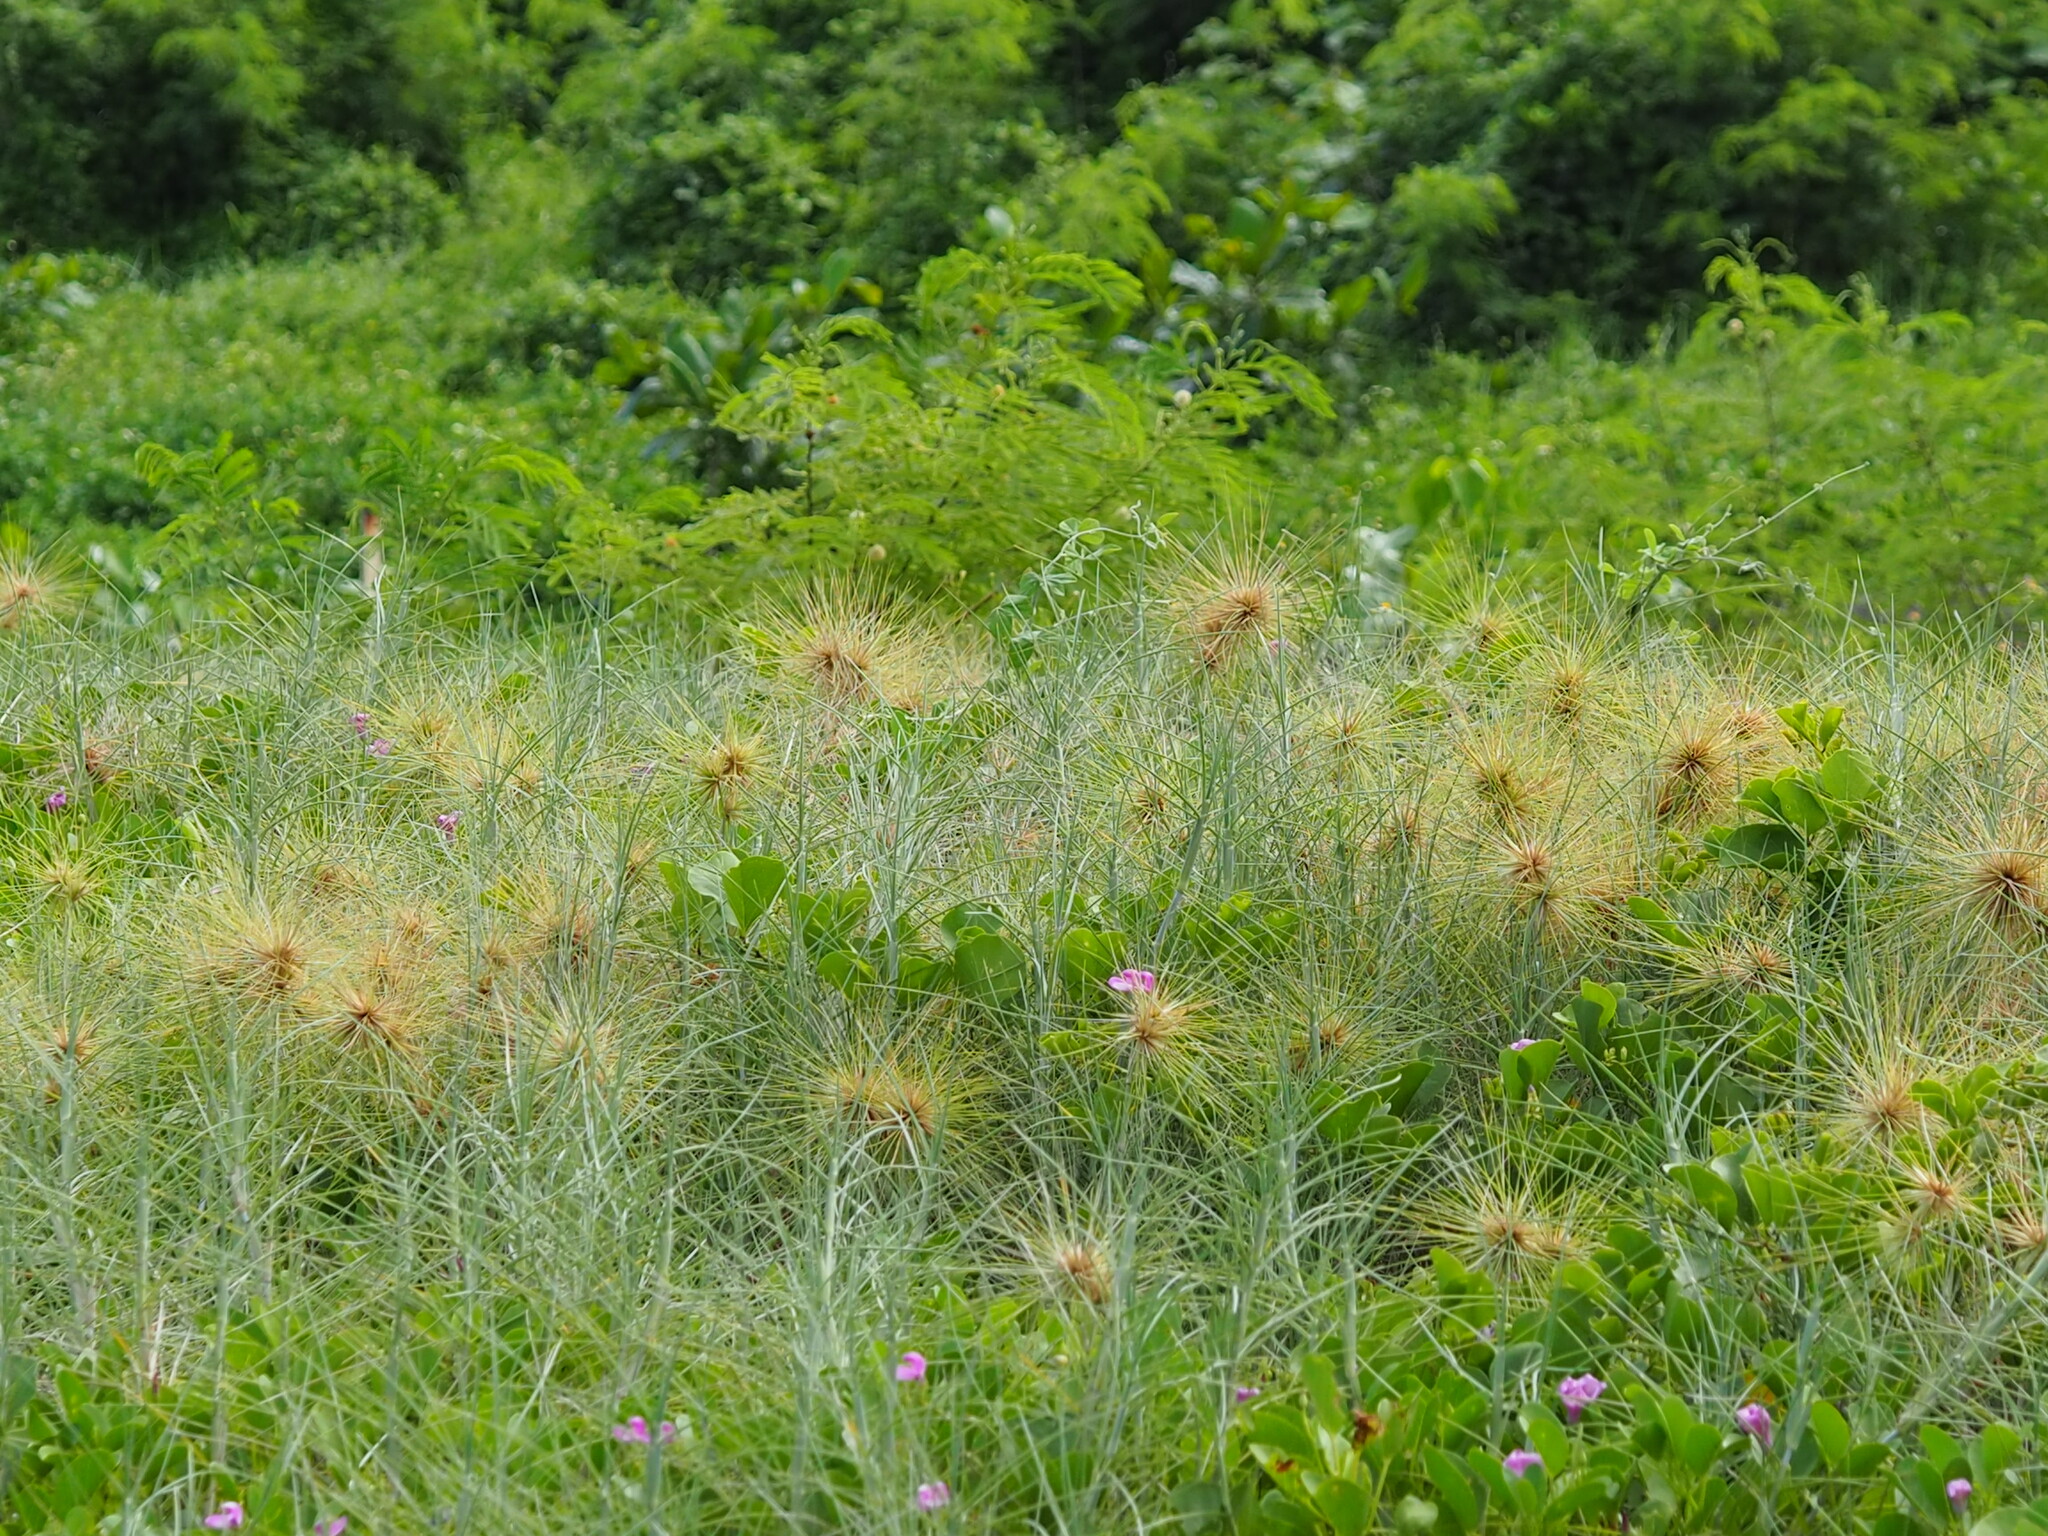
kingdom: Plantae
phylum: Tracheophyta
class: Liliopsida
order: Poales
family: Poaceae
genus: Spinifex
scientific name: Spinifex littoreus
